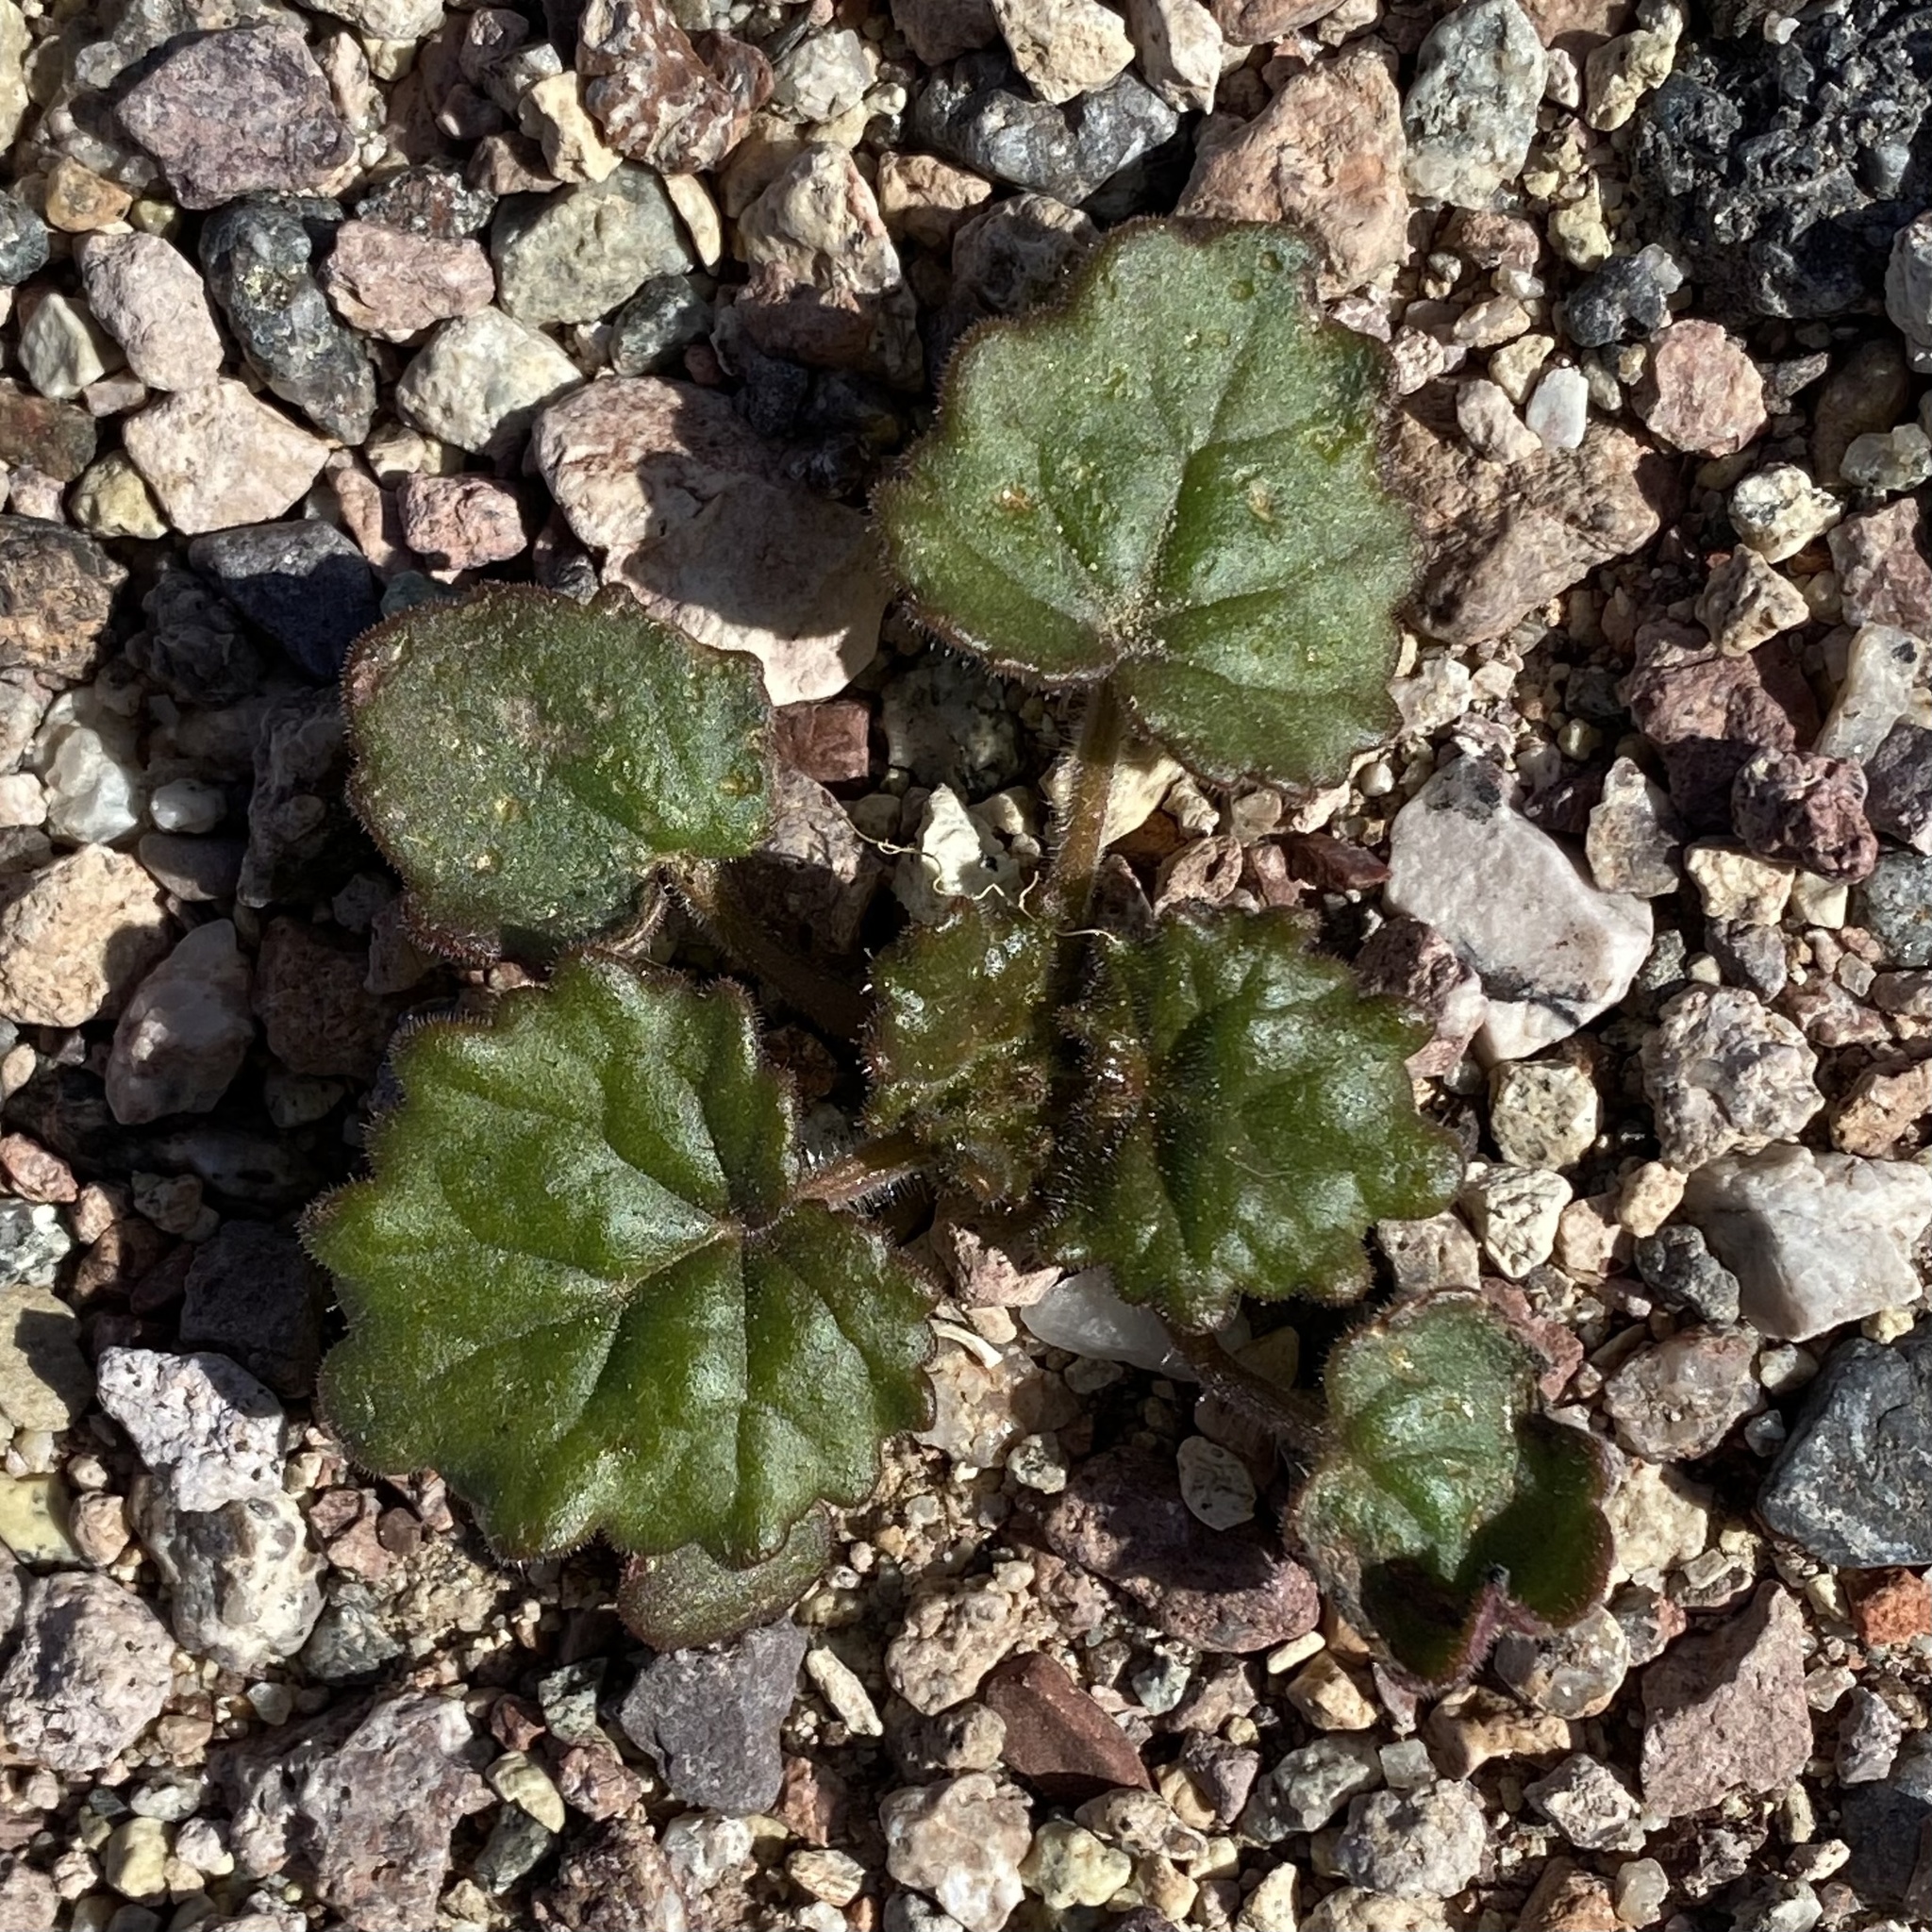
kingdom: Plantae
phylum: Tracheophyta
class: Magnoliopsida
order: Boraginales
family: Hydrophyllaceae
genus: Phacelia
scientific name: Phacelia calthifolia
